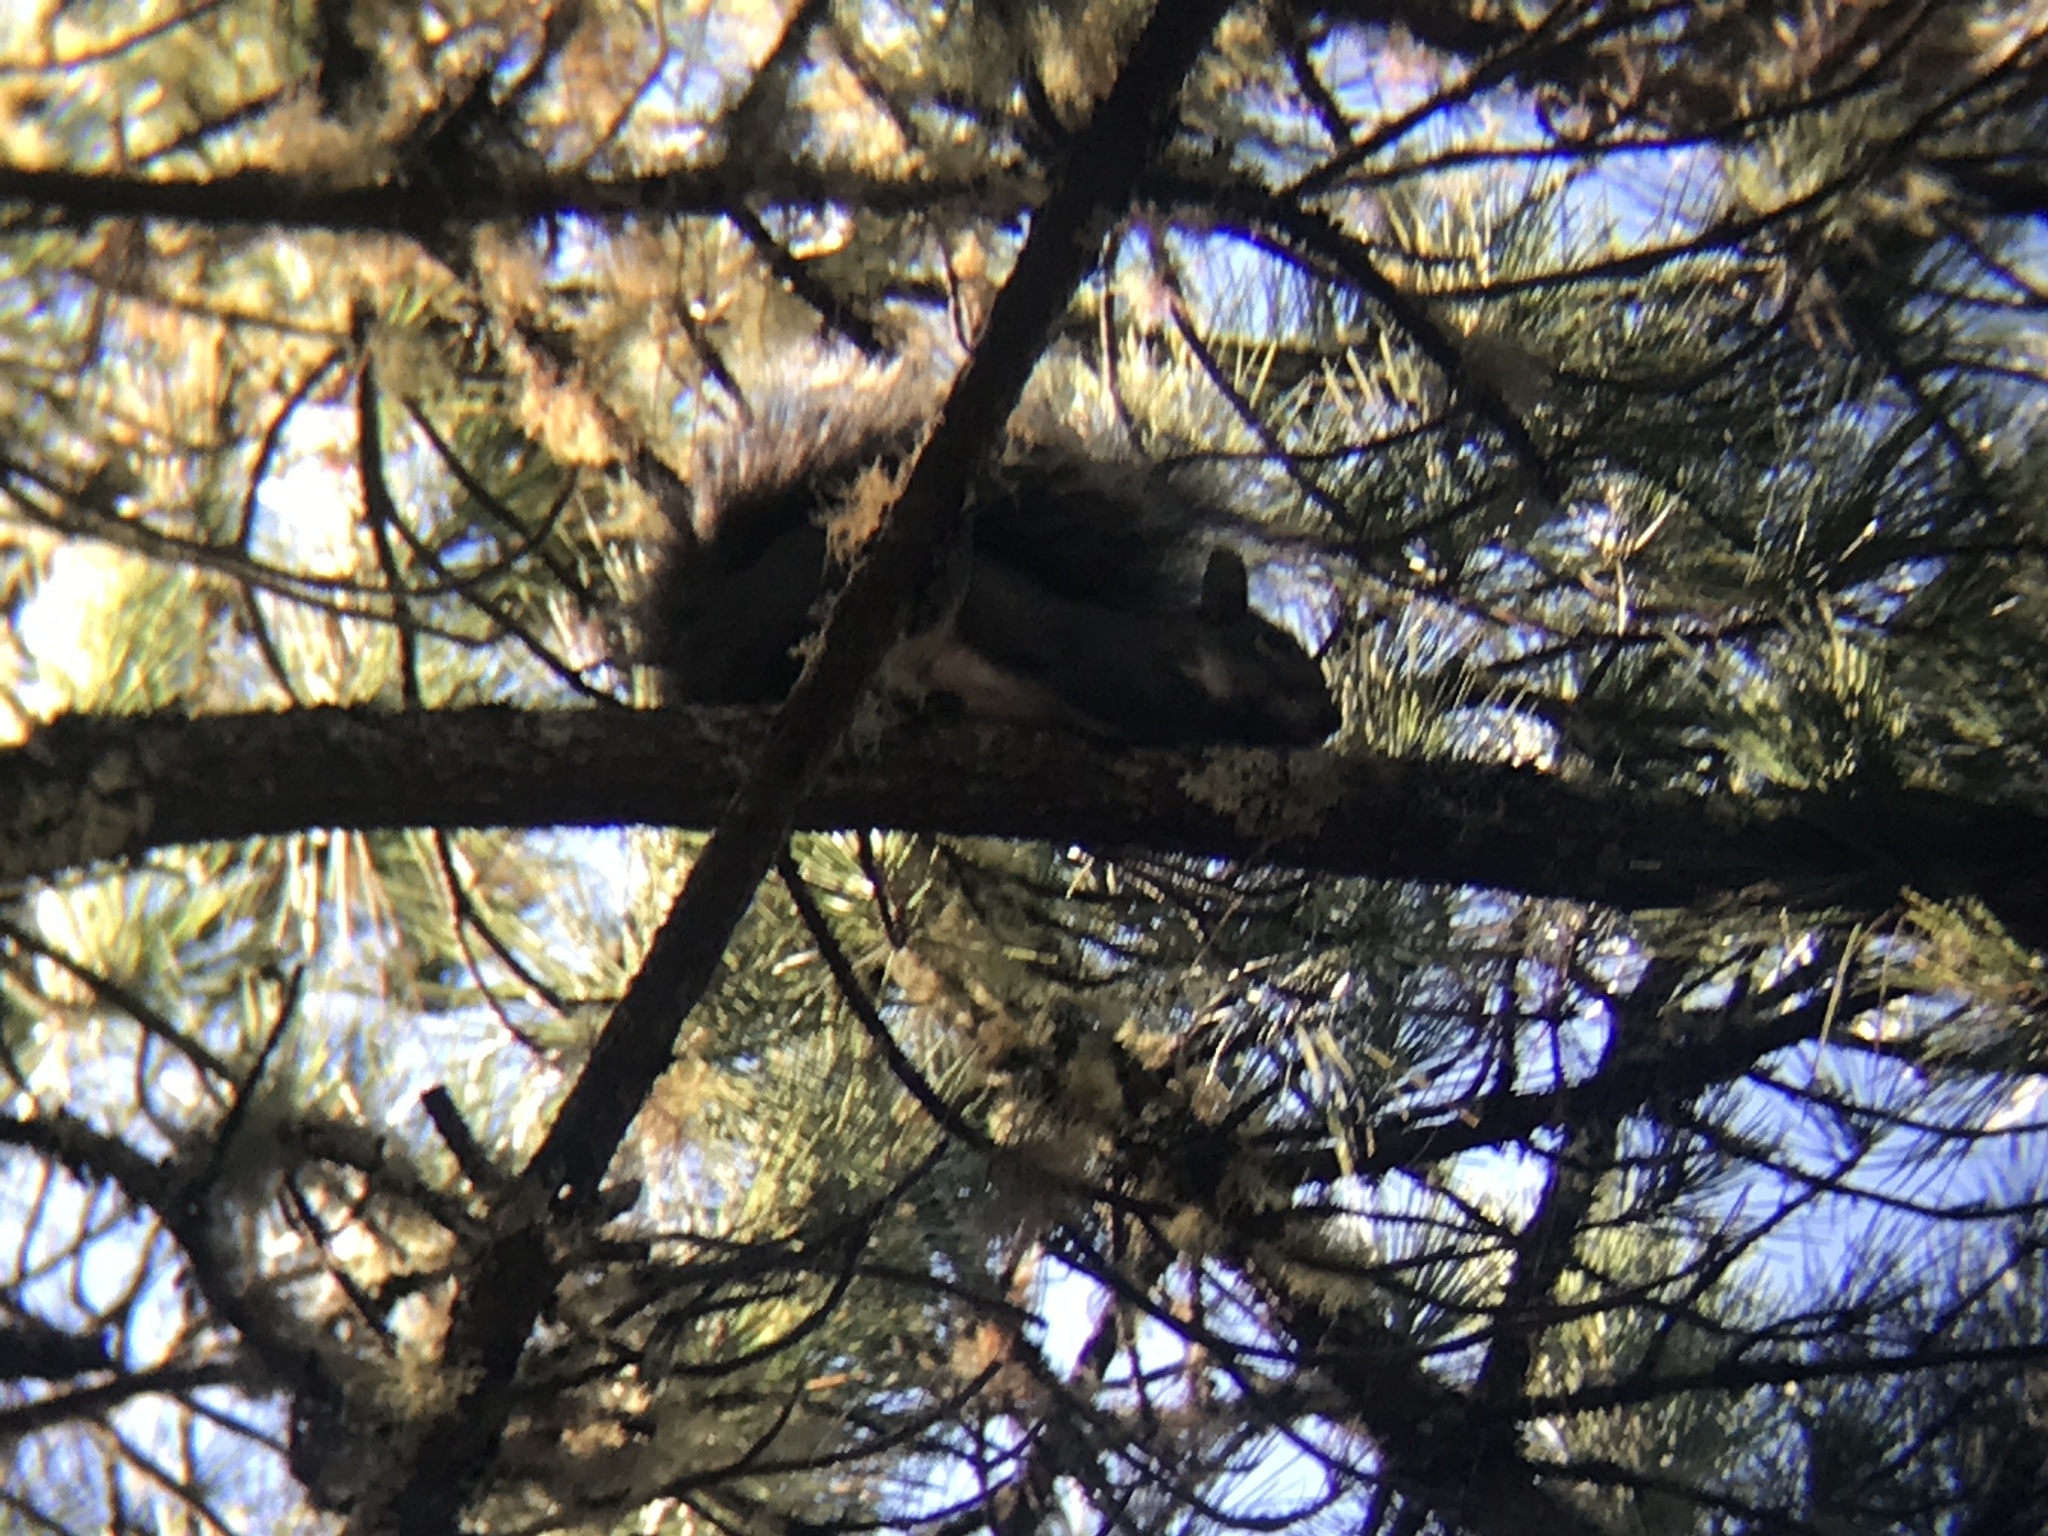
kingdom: Animalia
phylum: Chordata
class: Mammalia
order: Rodentia
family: Sciuridae
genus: Sciurus
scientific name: Sciurus griseus
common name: Western gray squirrel
